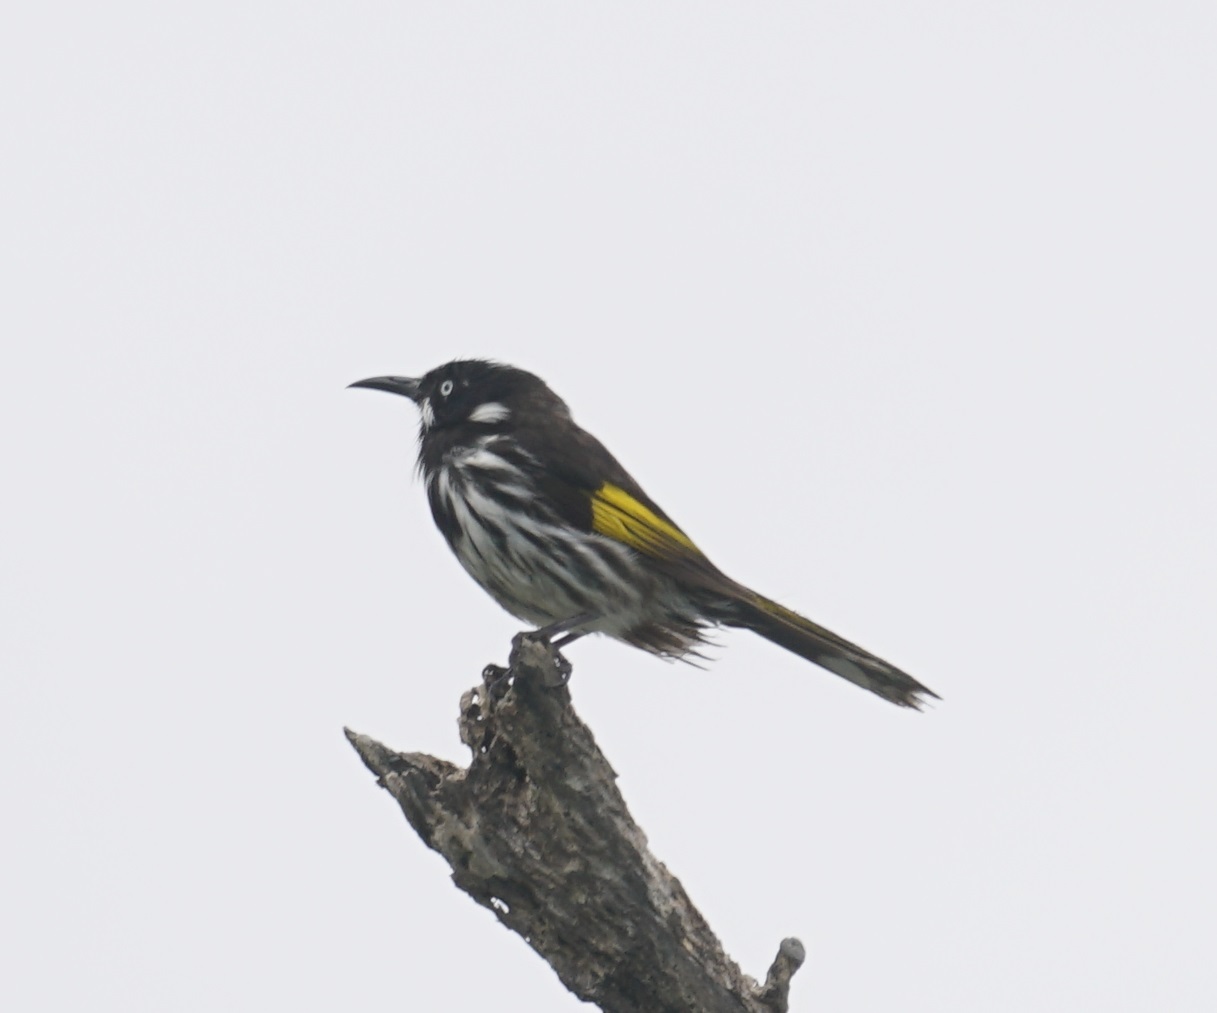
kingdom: Animalia
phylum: Chordata
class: Aves
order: Passeriformes
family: Meliphagidae
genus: Phylidonyris
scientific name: Phylidonyris novaehollandiae
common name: New holland honeyeater
